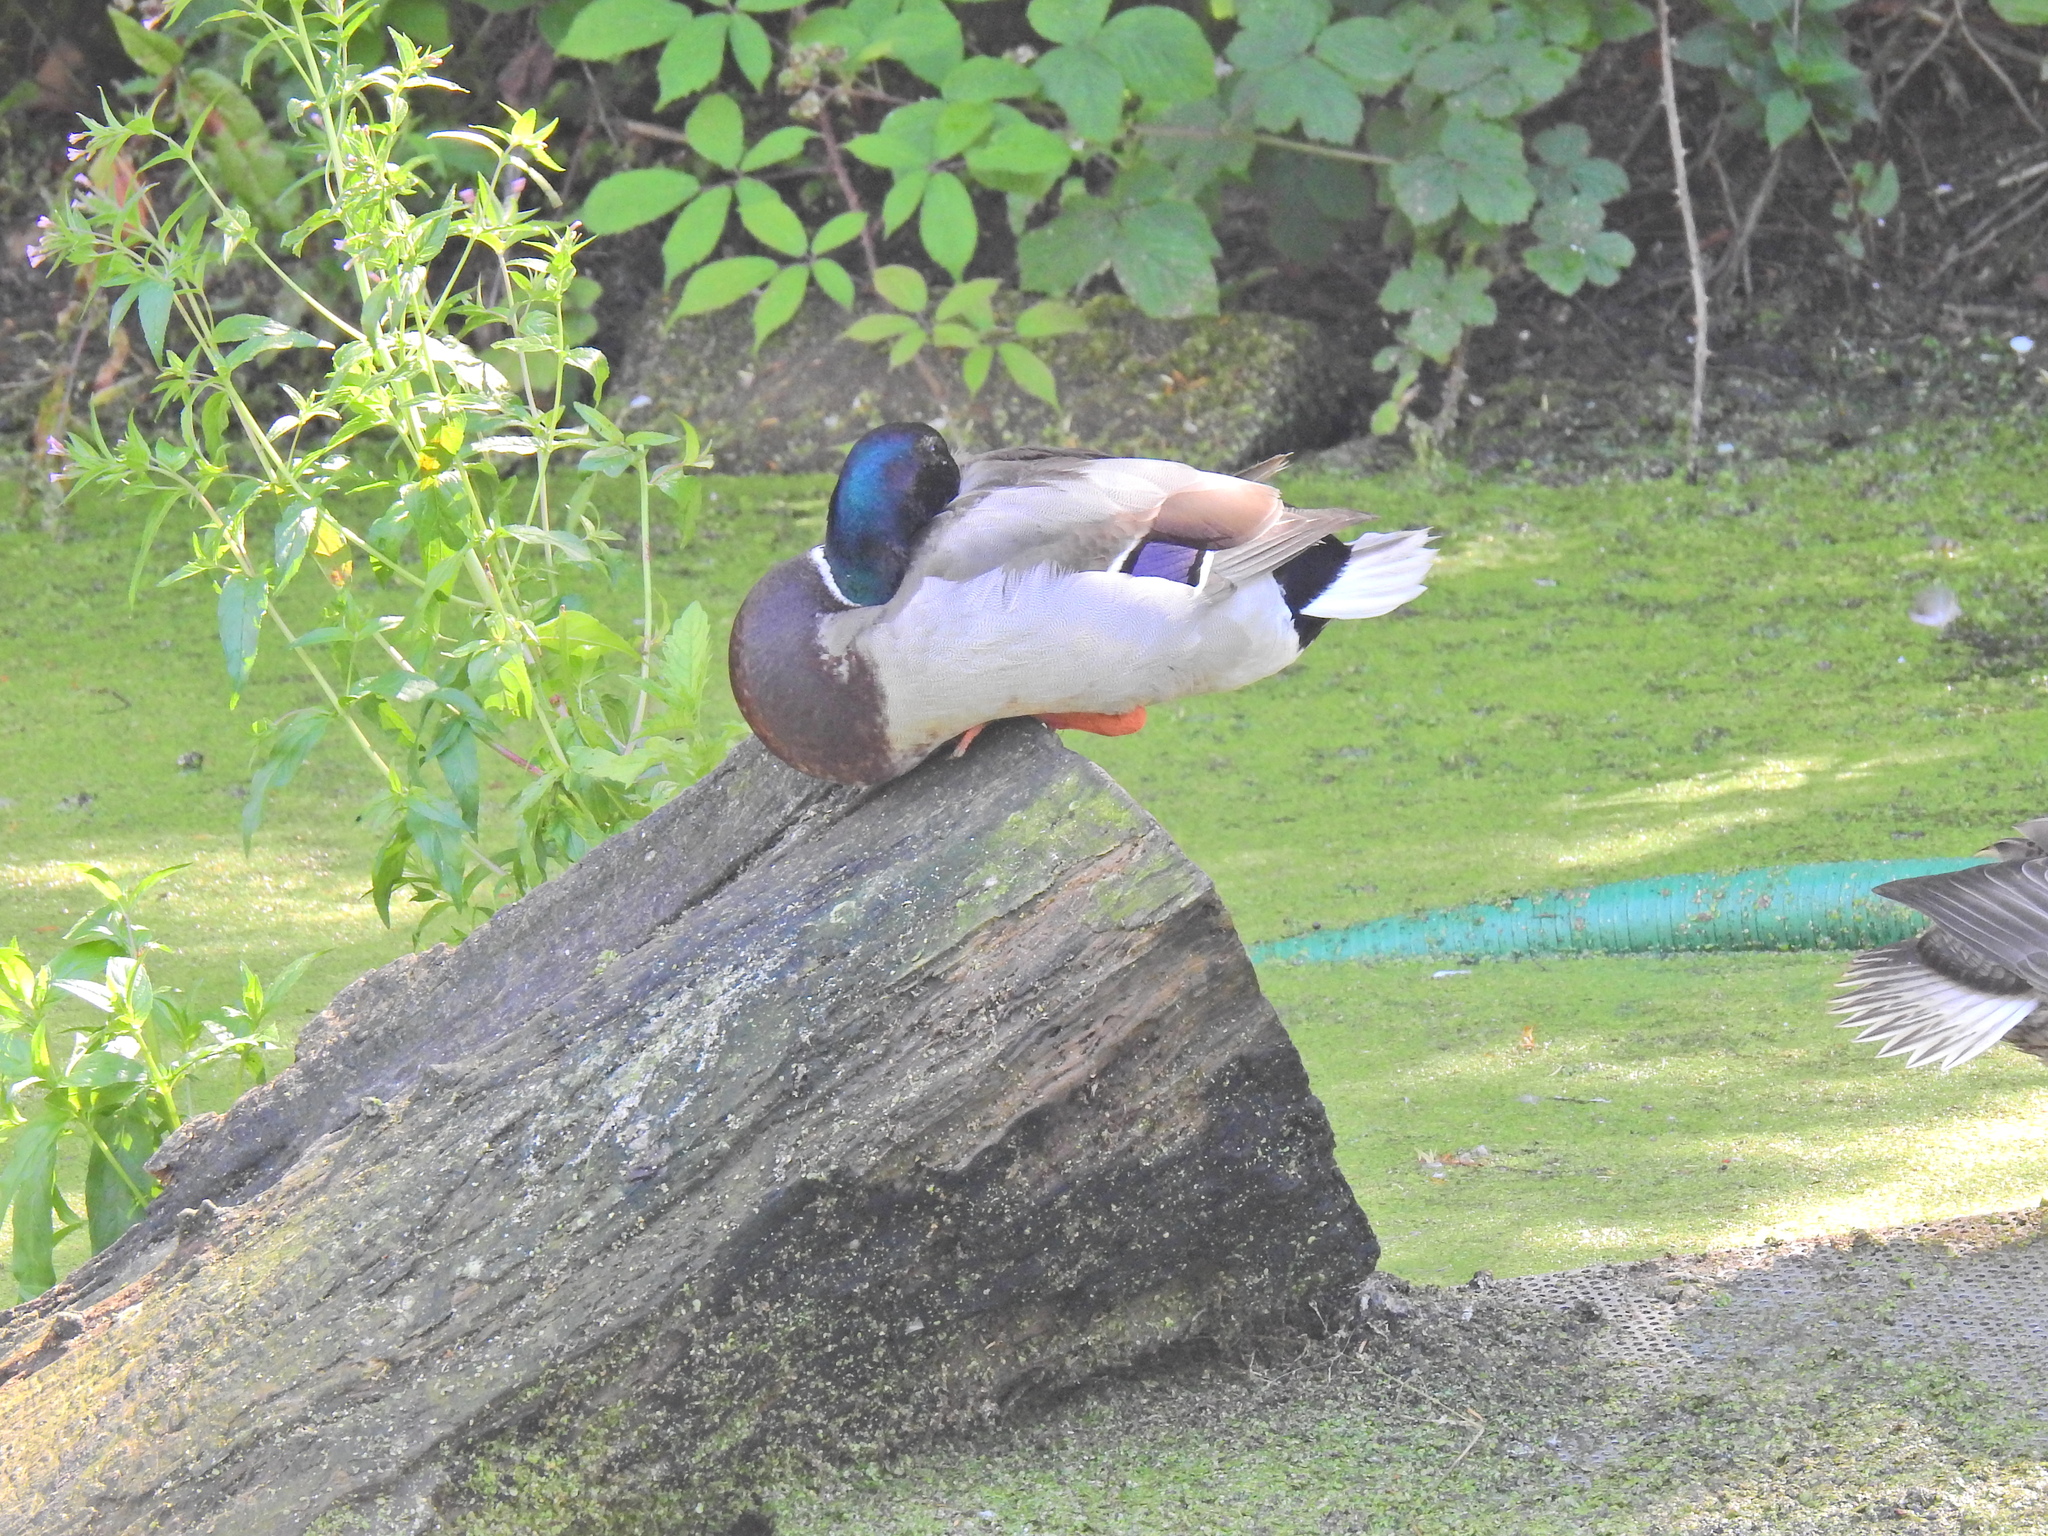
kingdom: Animalia
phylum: Chordata
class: Aves
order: Anseriformes
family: Anatidae
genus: Anas
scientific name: Anas platyrhynchos
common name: Mallard
